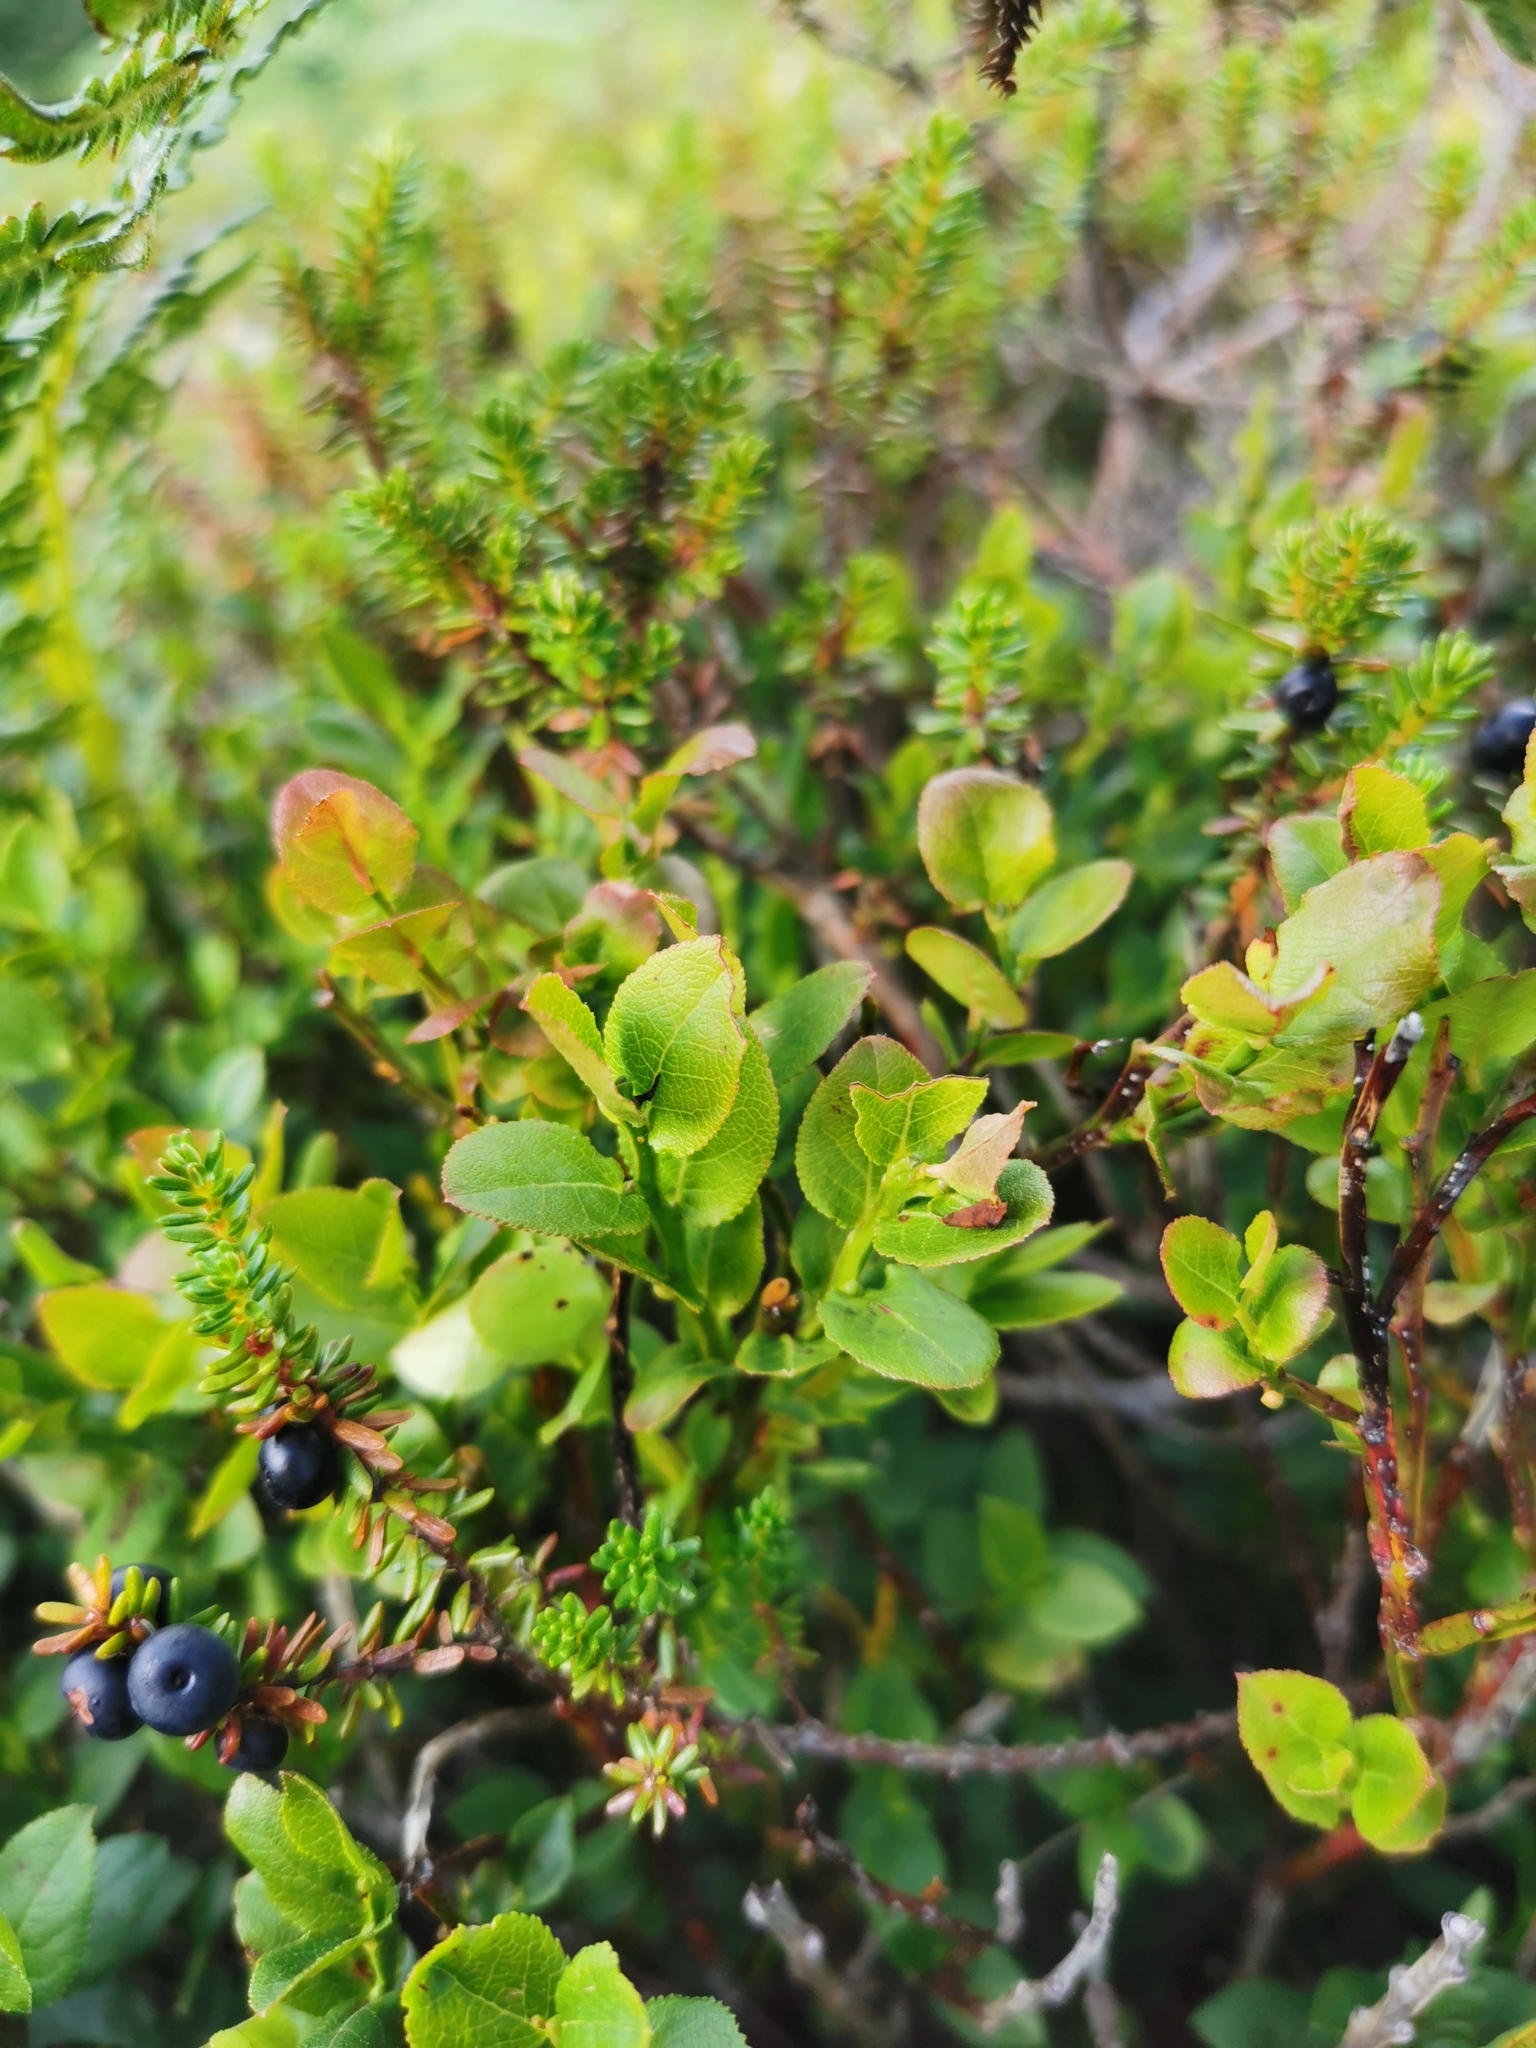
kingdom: Plantae
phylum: Tracheophyta
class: Magnoliopsida
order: Ericales
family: Ericaceae
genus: Vaccinium
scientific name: Vaccinium myrtillus
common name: Bilberry
